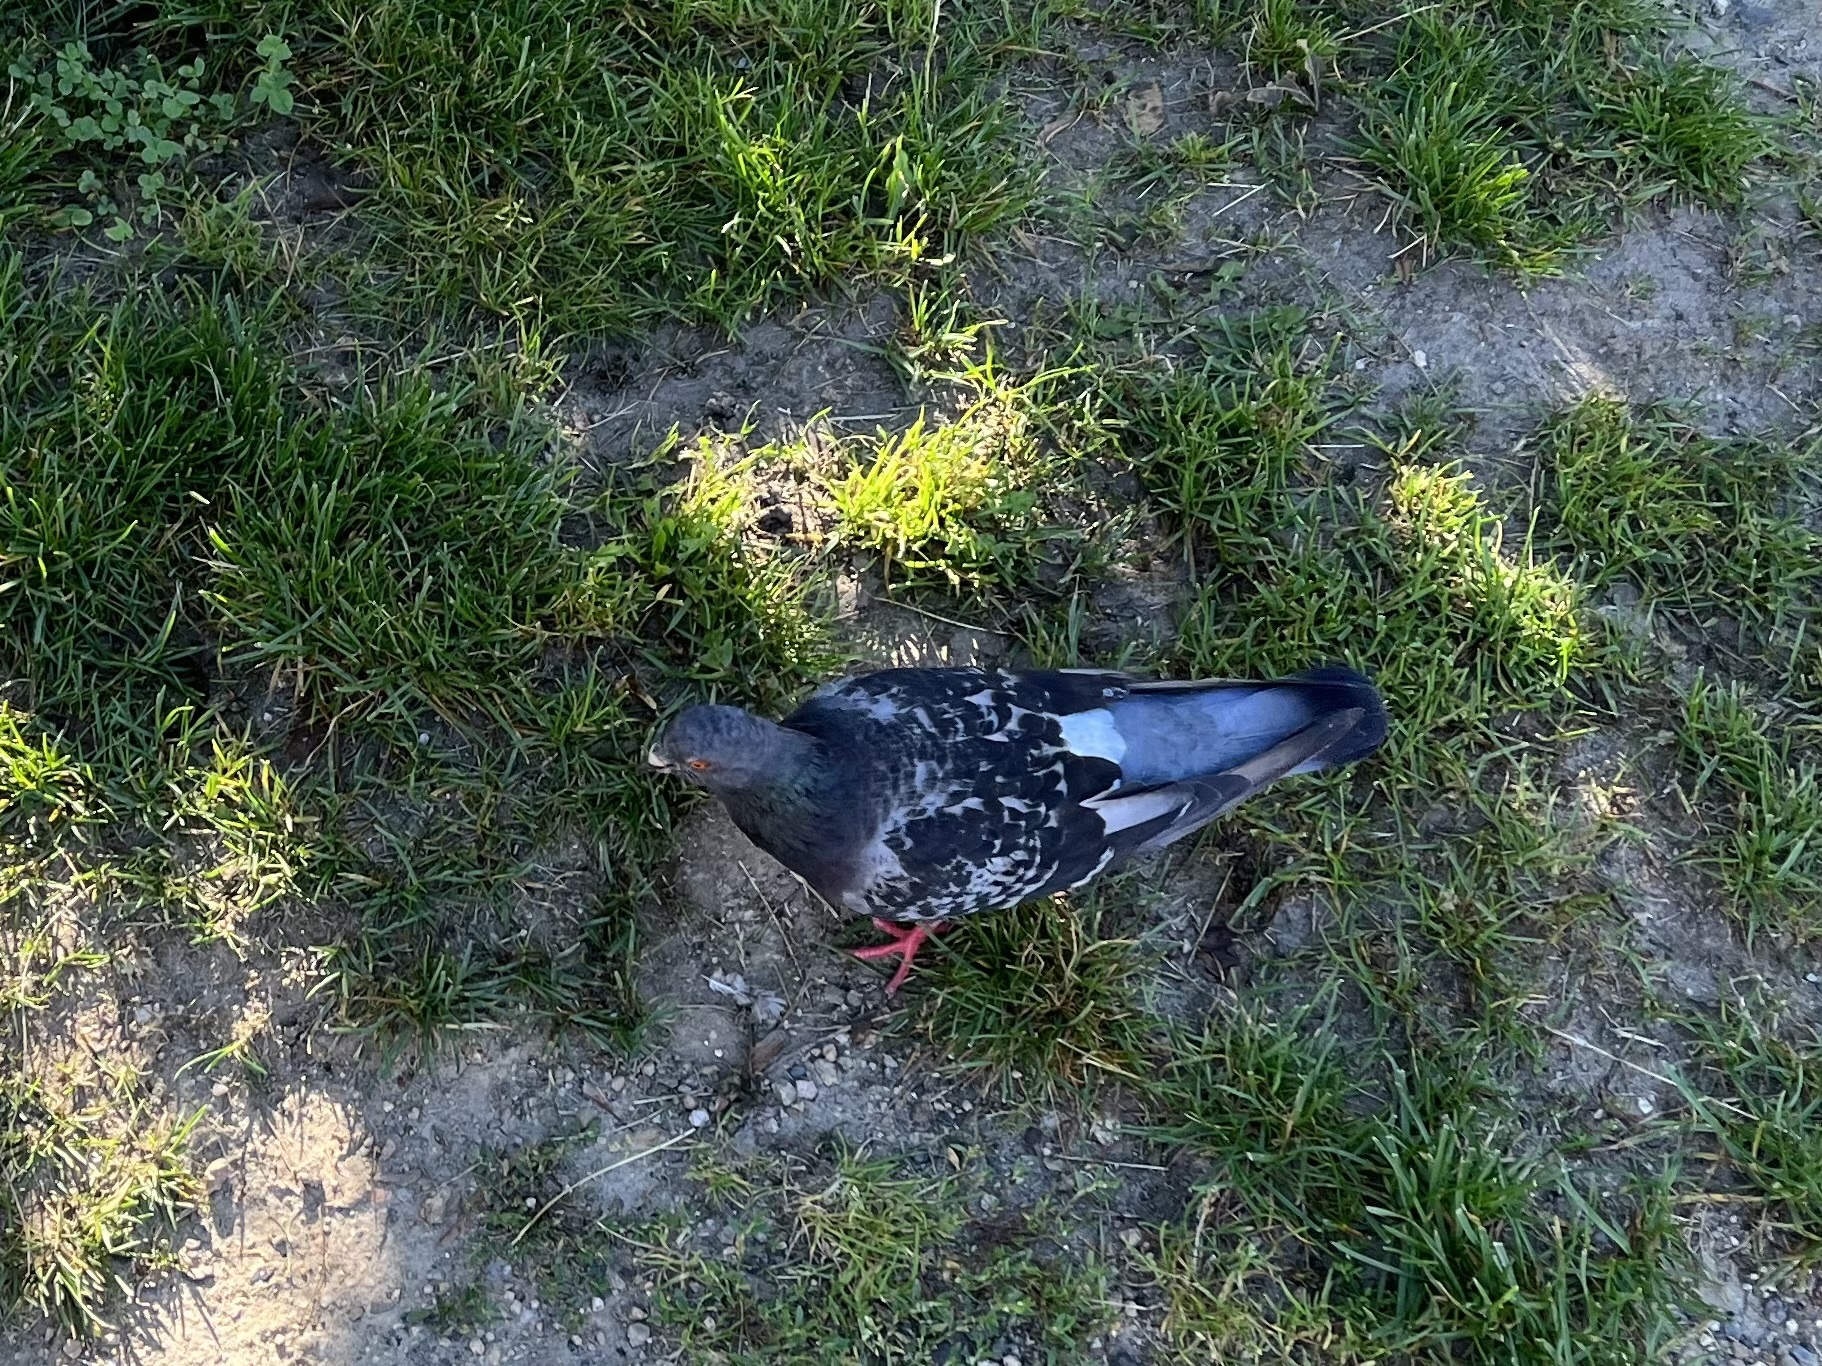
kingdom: Animalia
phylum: Chordata
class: Aves
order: Columbiformes
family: Columbidae
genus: Columba
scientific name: Columba livia
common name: Rock pigeon
